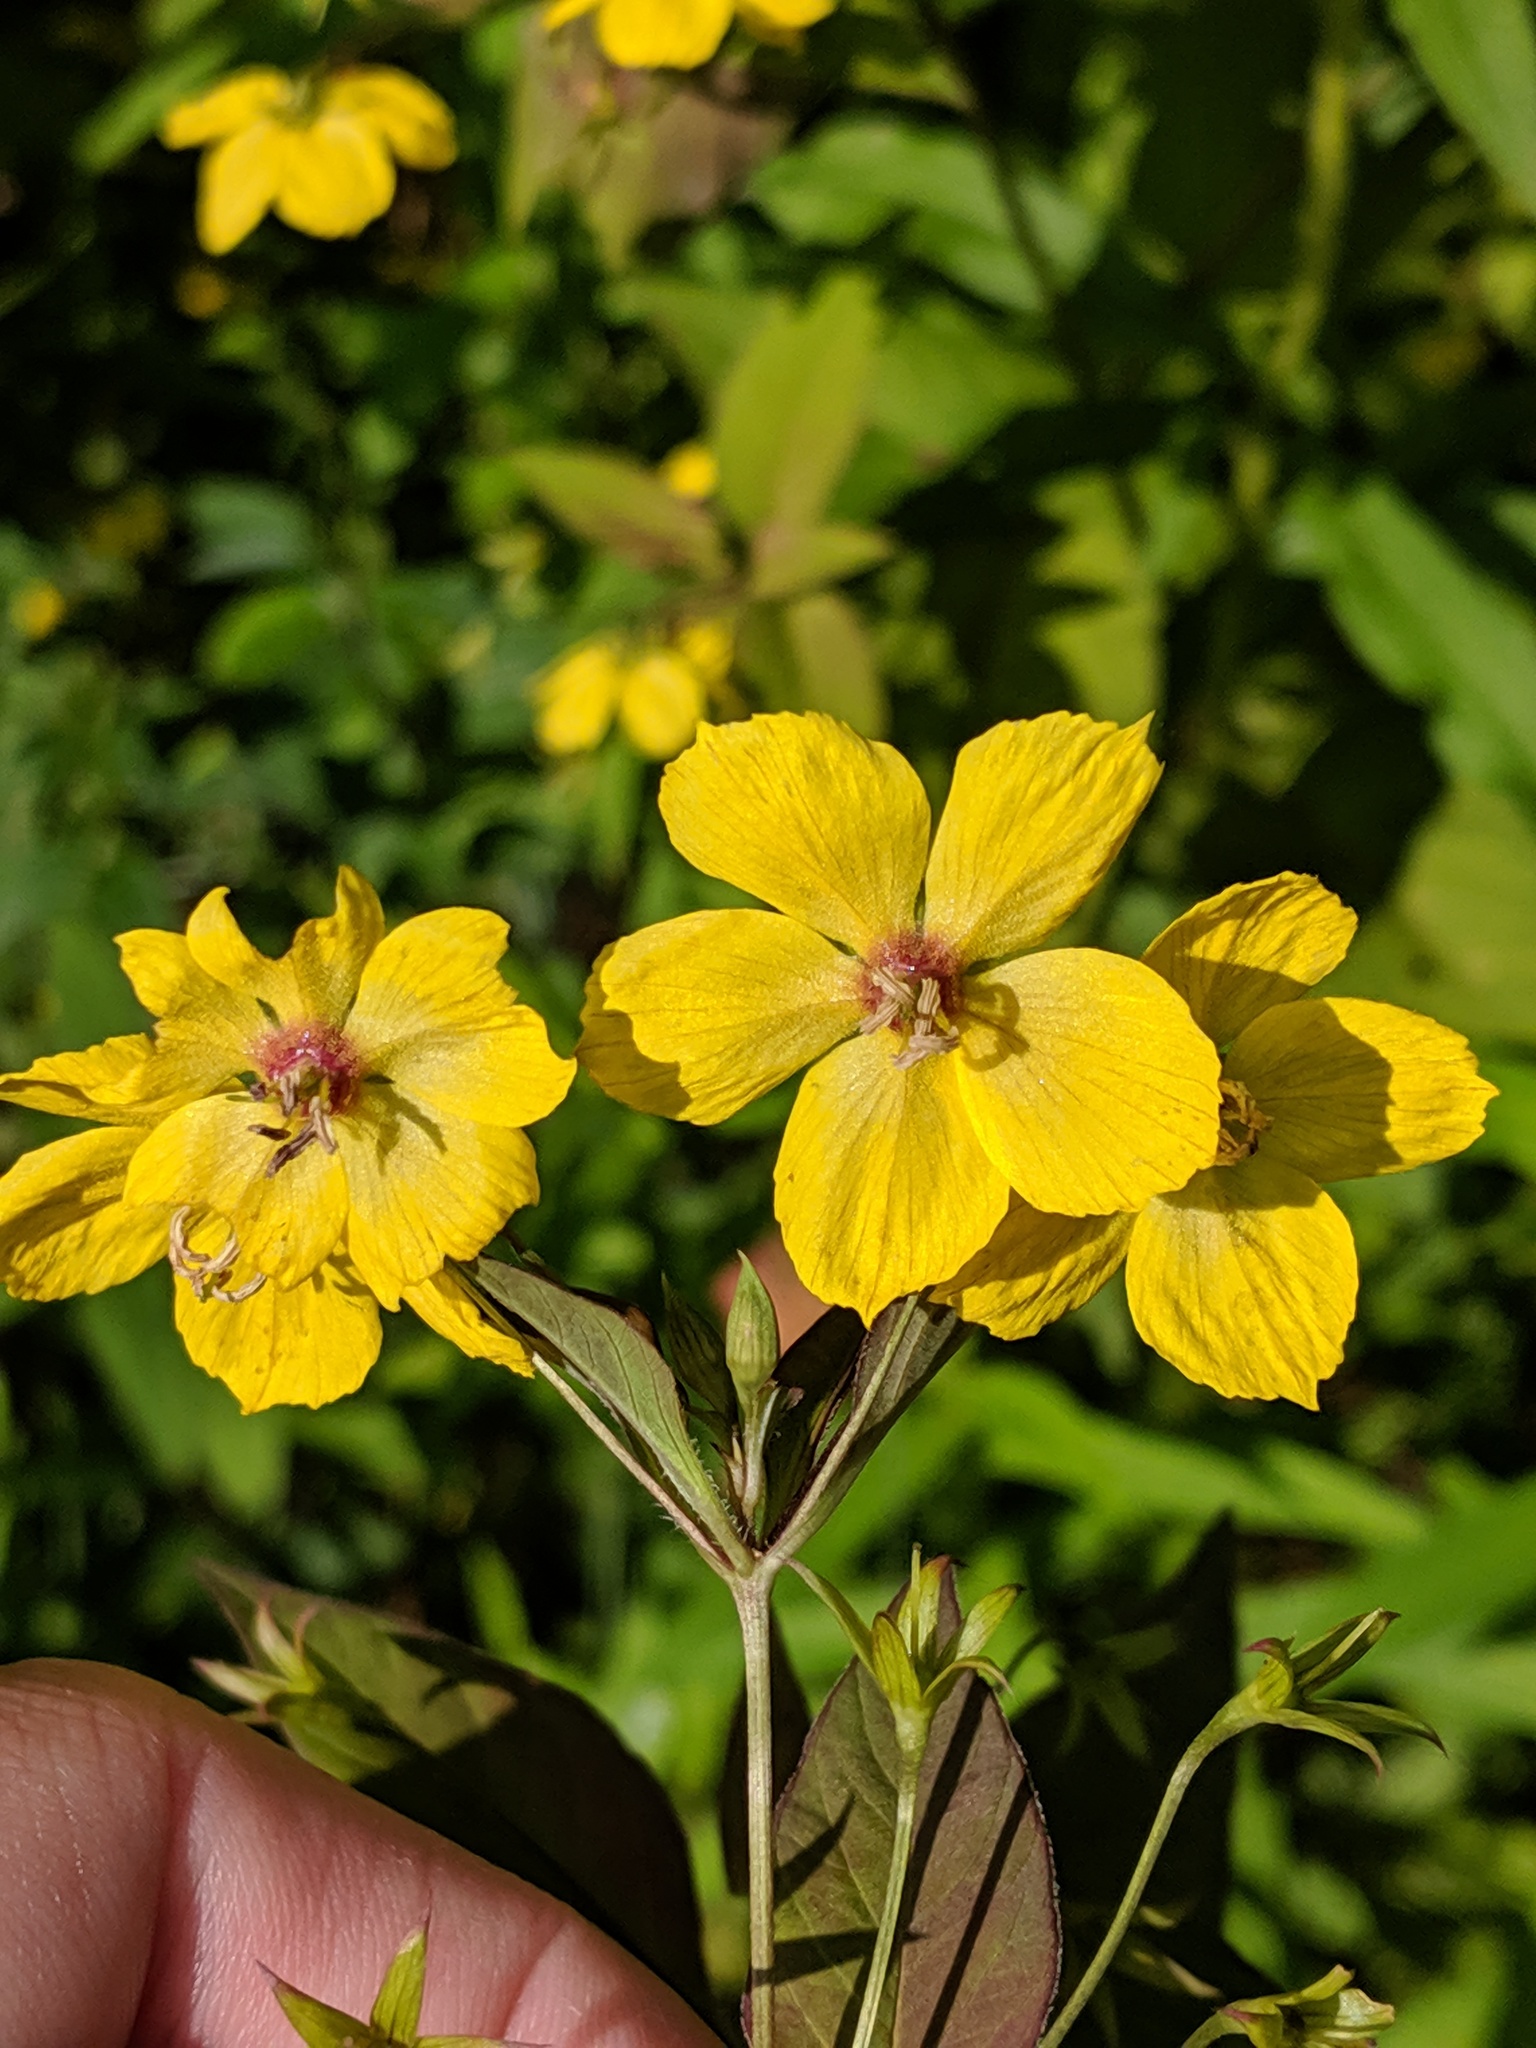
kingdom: Plantae
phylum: Tracheophyta
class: Magnoliopsida
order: Ericales
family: Primulaceae
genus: Lysimachia
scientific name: Lysimachia ciliata
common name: Fringed loosestrife
